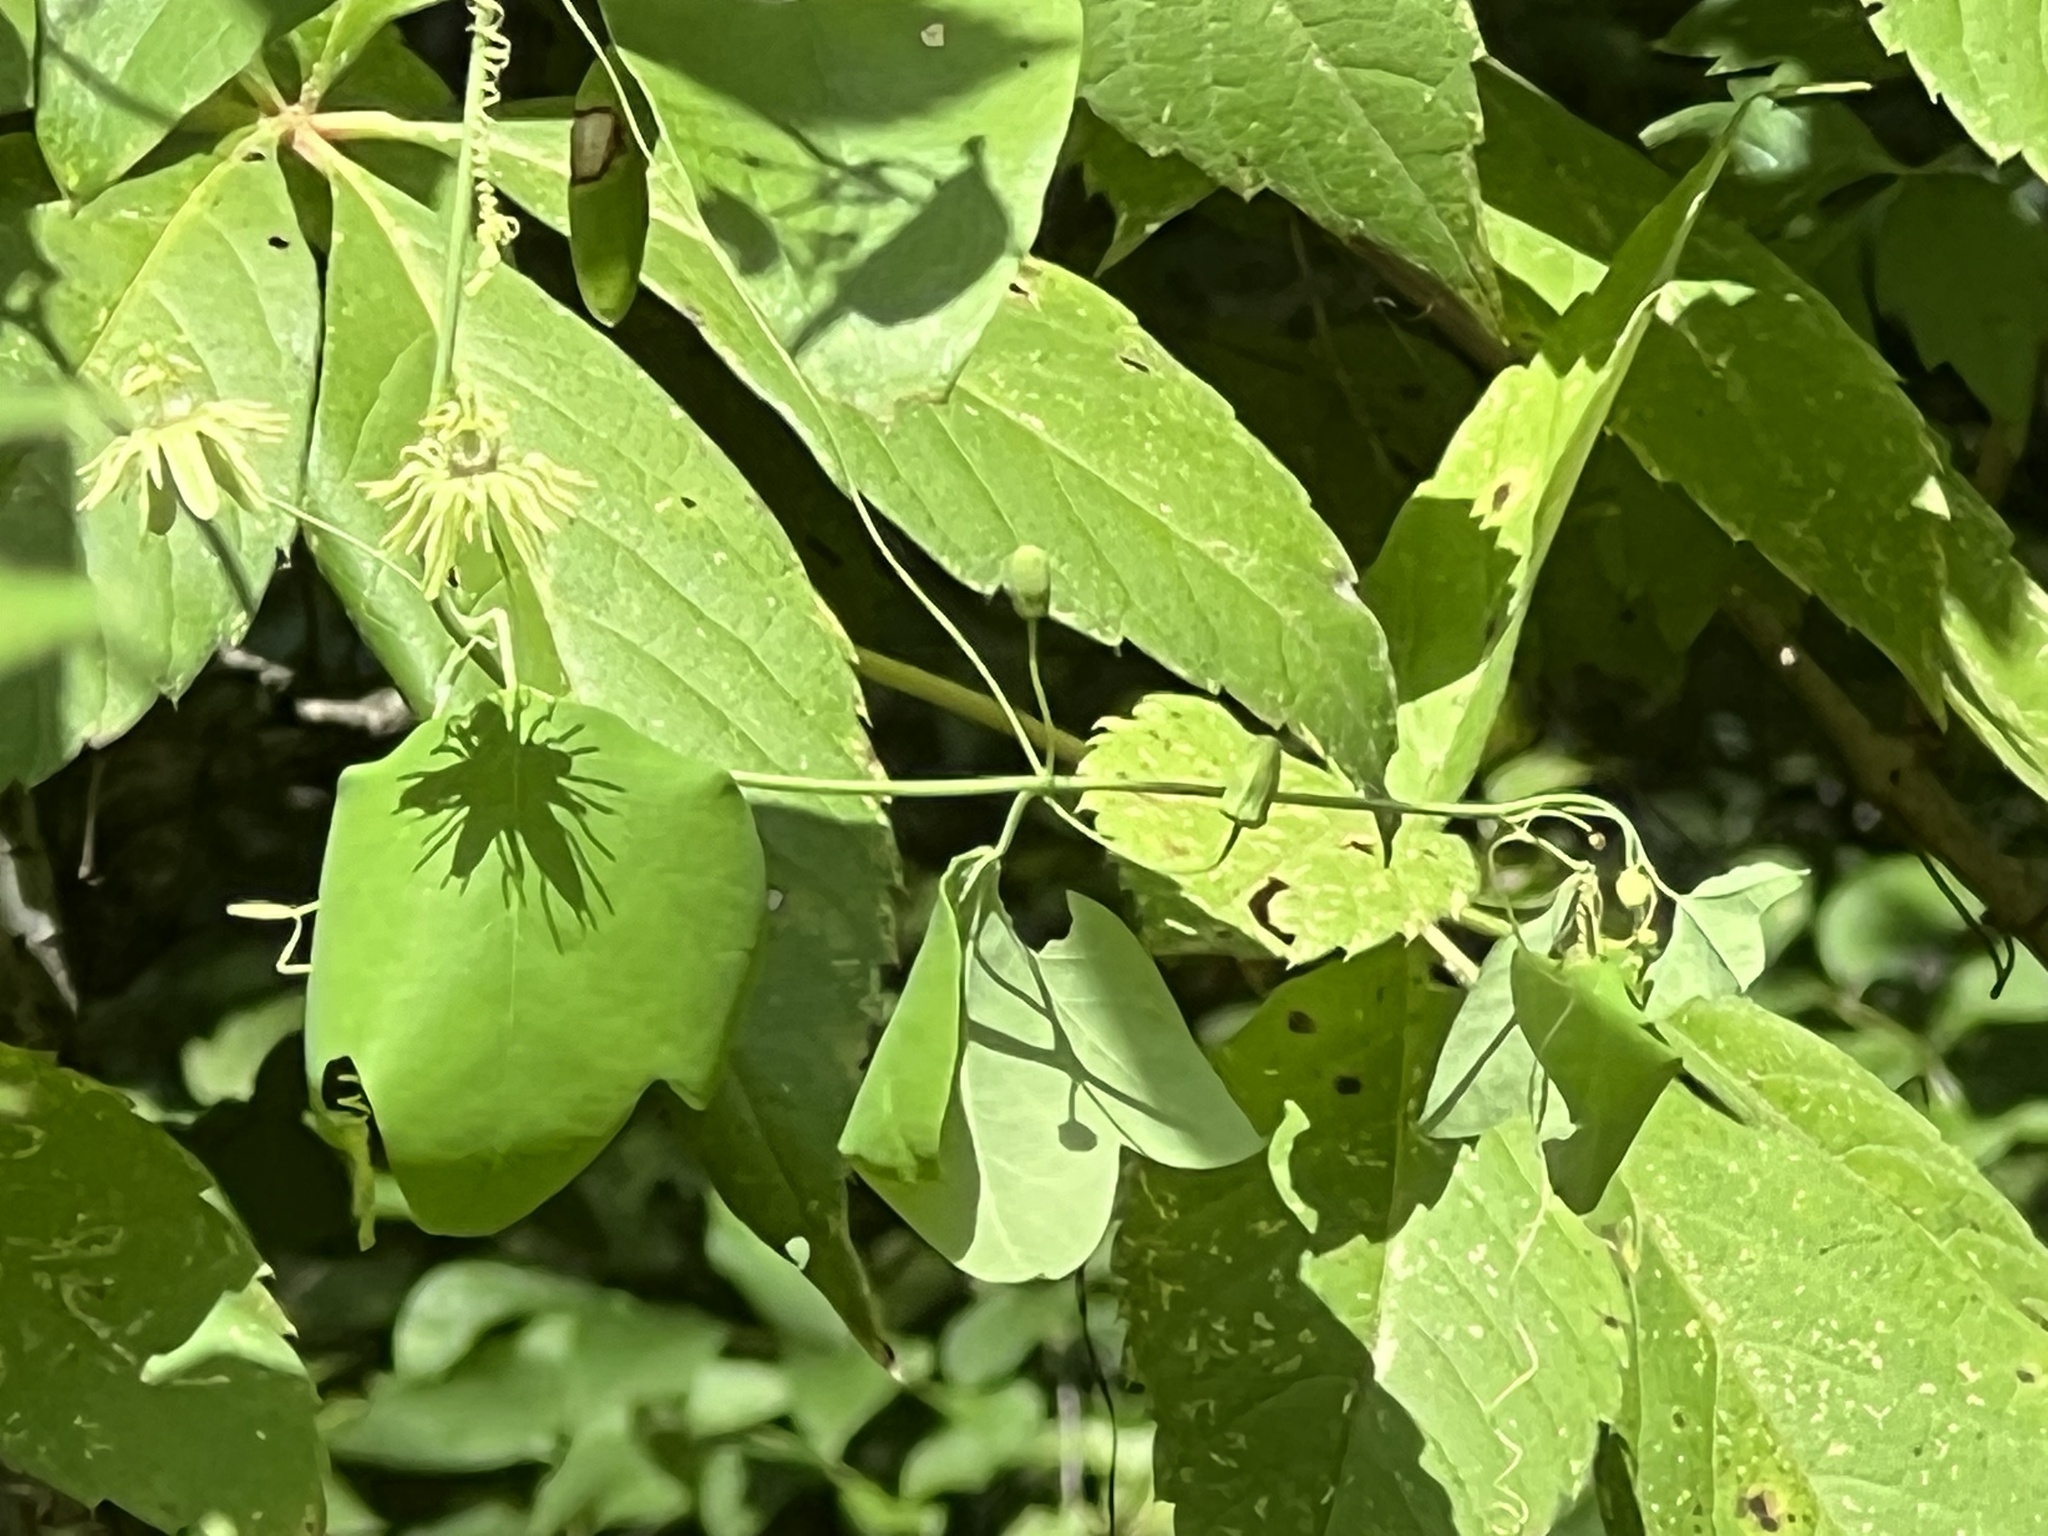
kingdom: Plantae
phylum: Tracheophyta
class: Magnoliopsida
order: Malpighiales
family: Passifloraceae
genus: Passiflora
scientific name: Passiflora lutea
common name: Yellow passionflower
